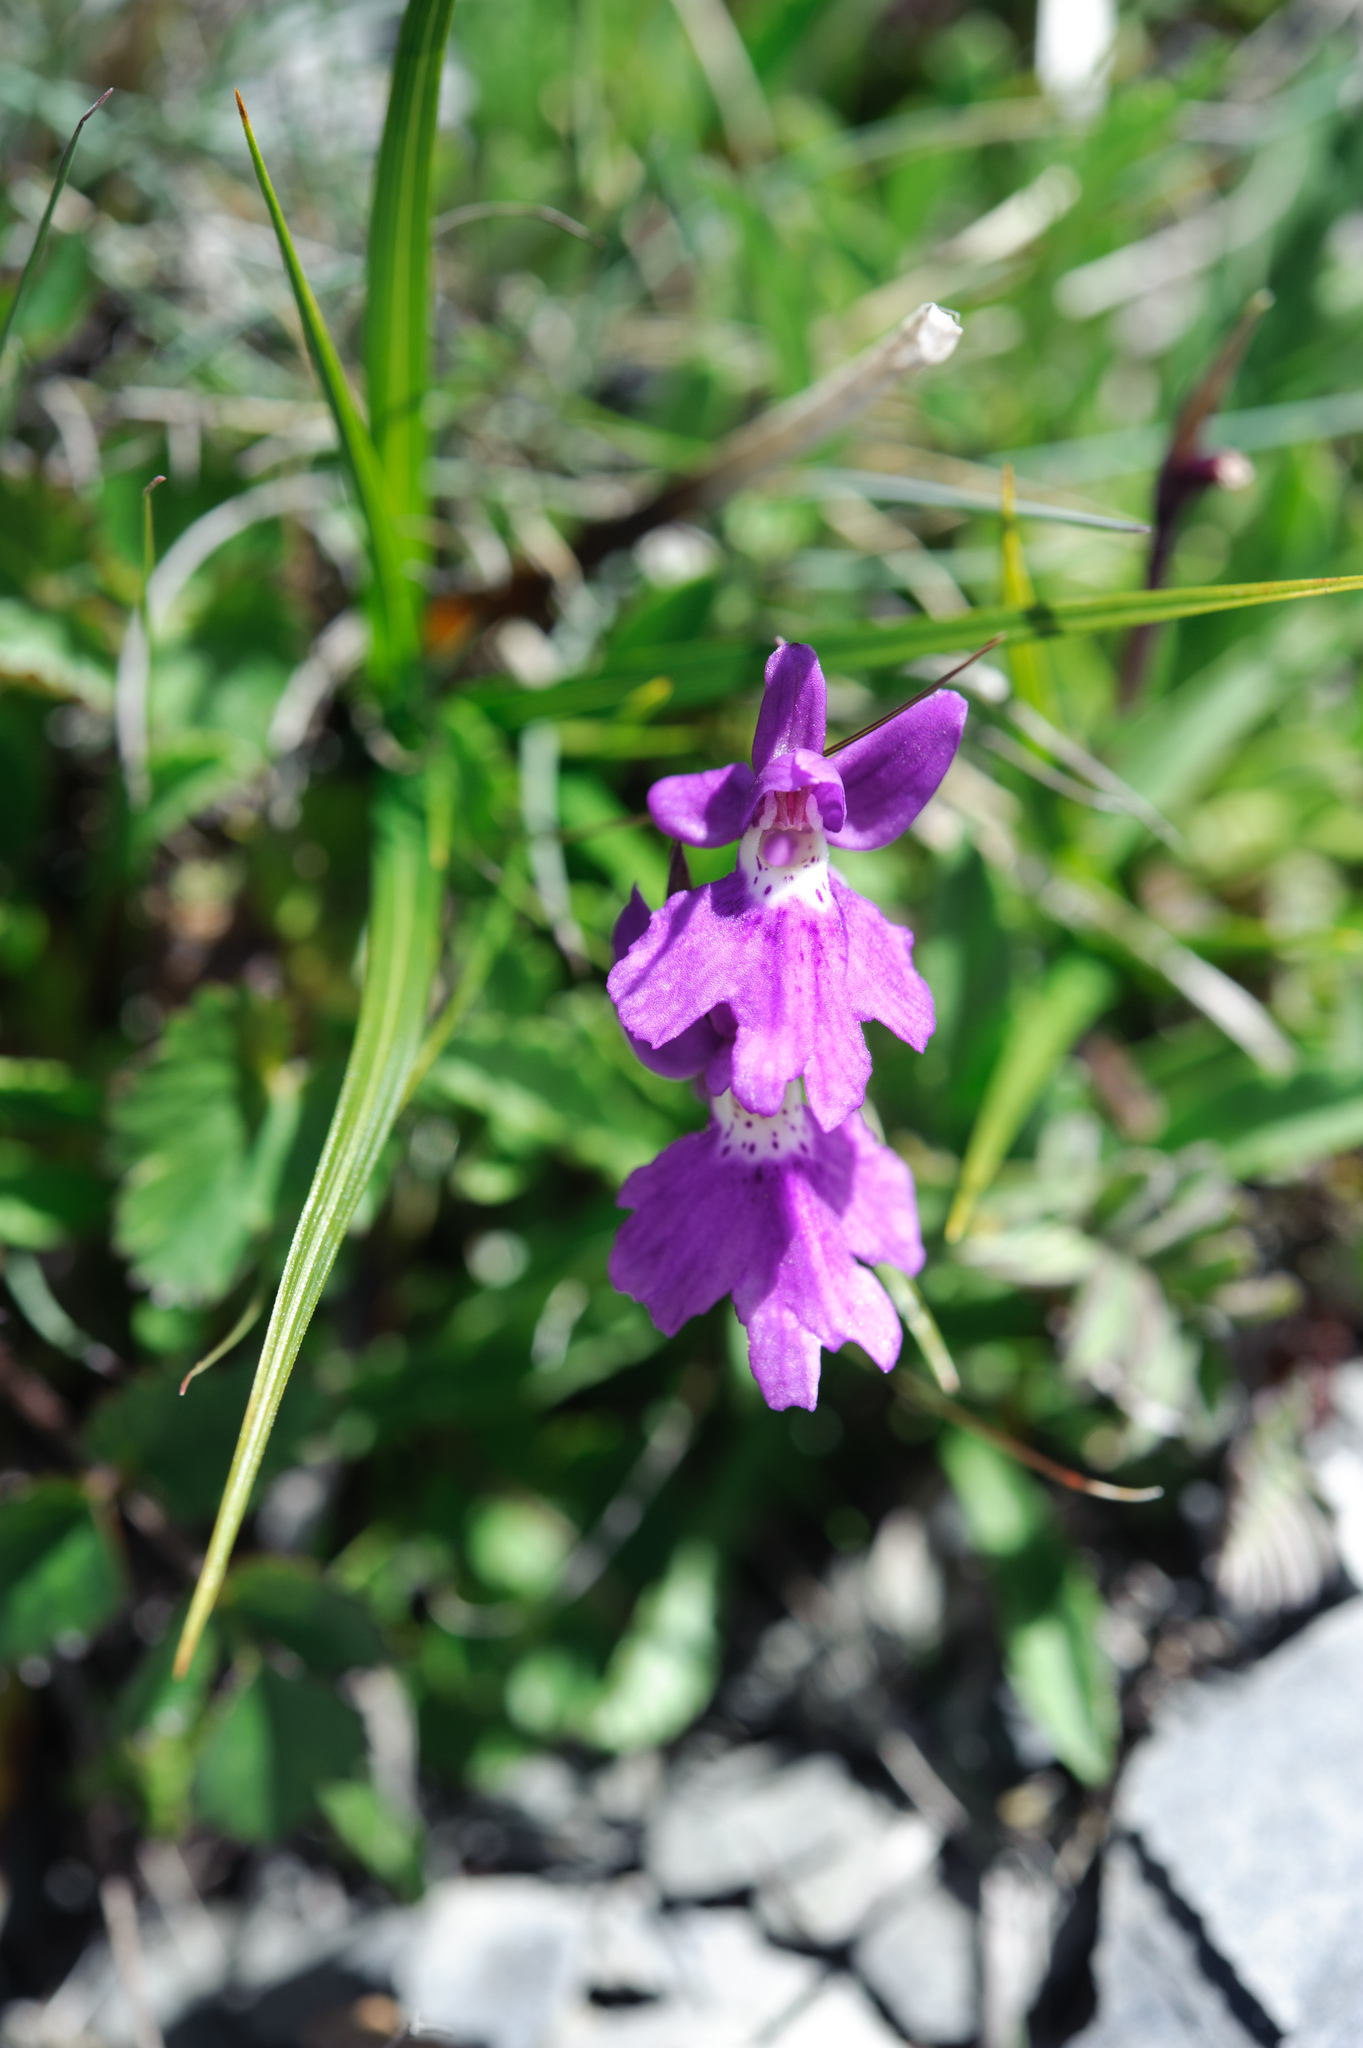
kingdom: Plantae
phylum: Tracheophyta
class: Liliopsida
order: Asparagales
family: Orchidaceae
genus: Hemipilia
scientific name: Hemipilia kiraishiensis
